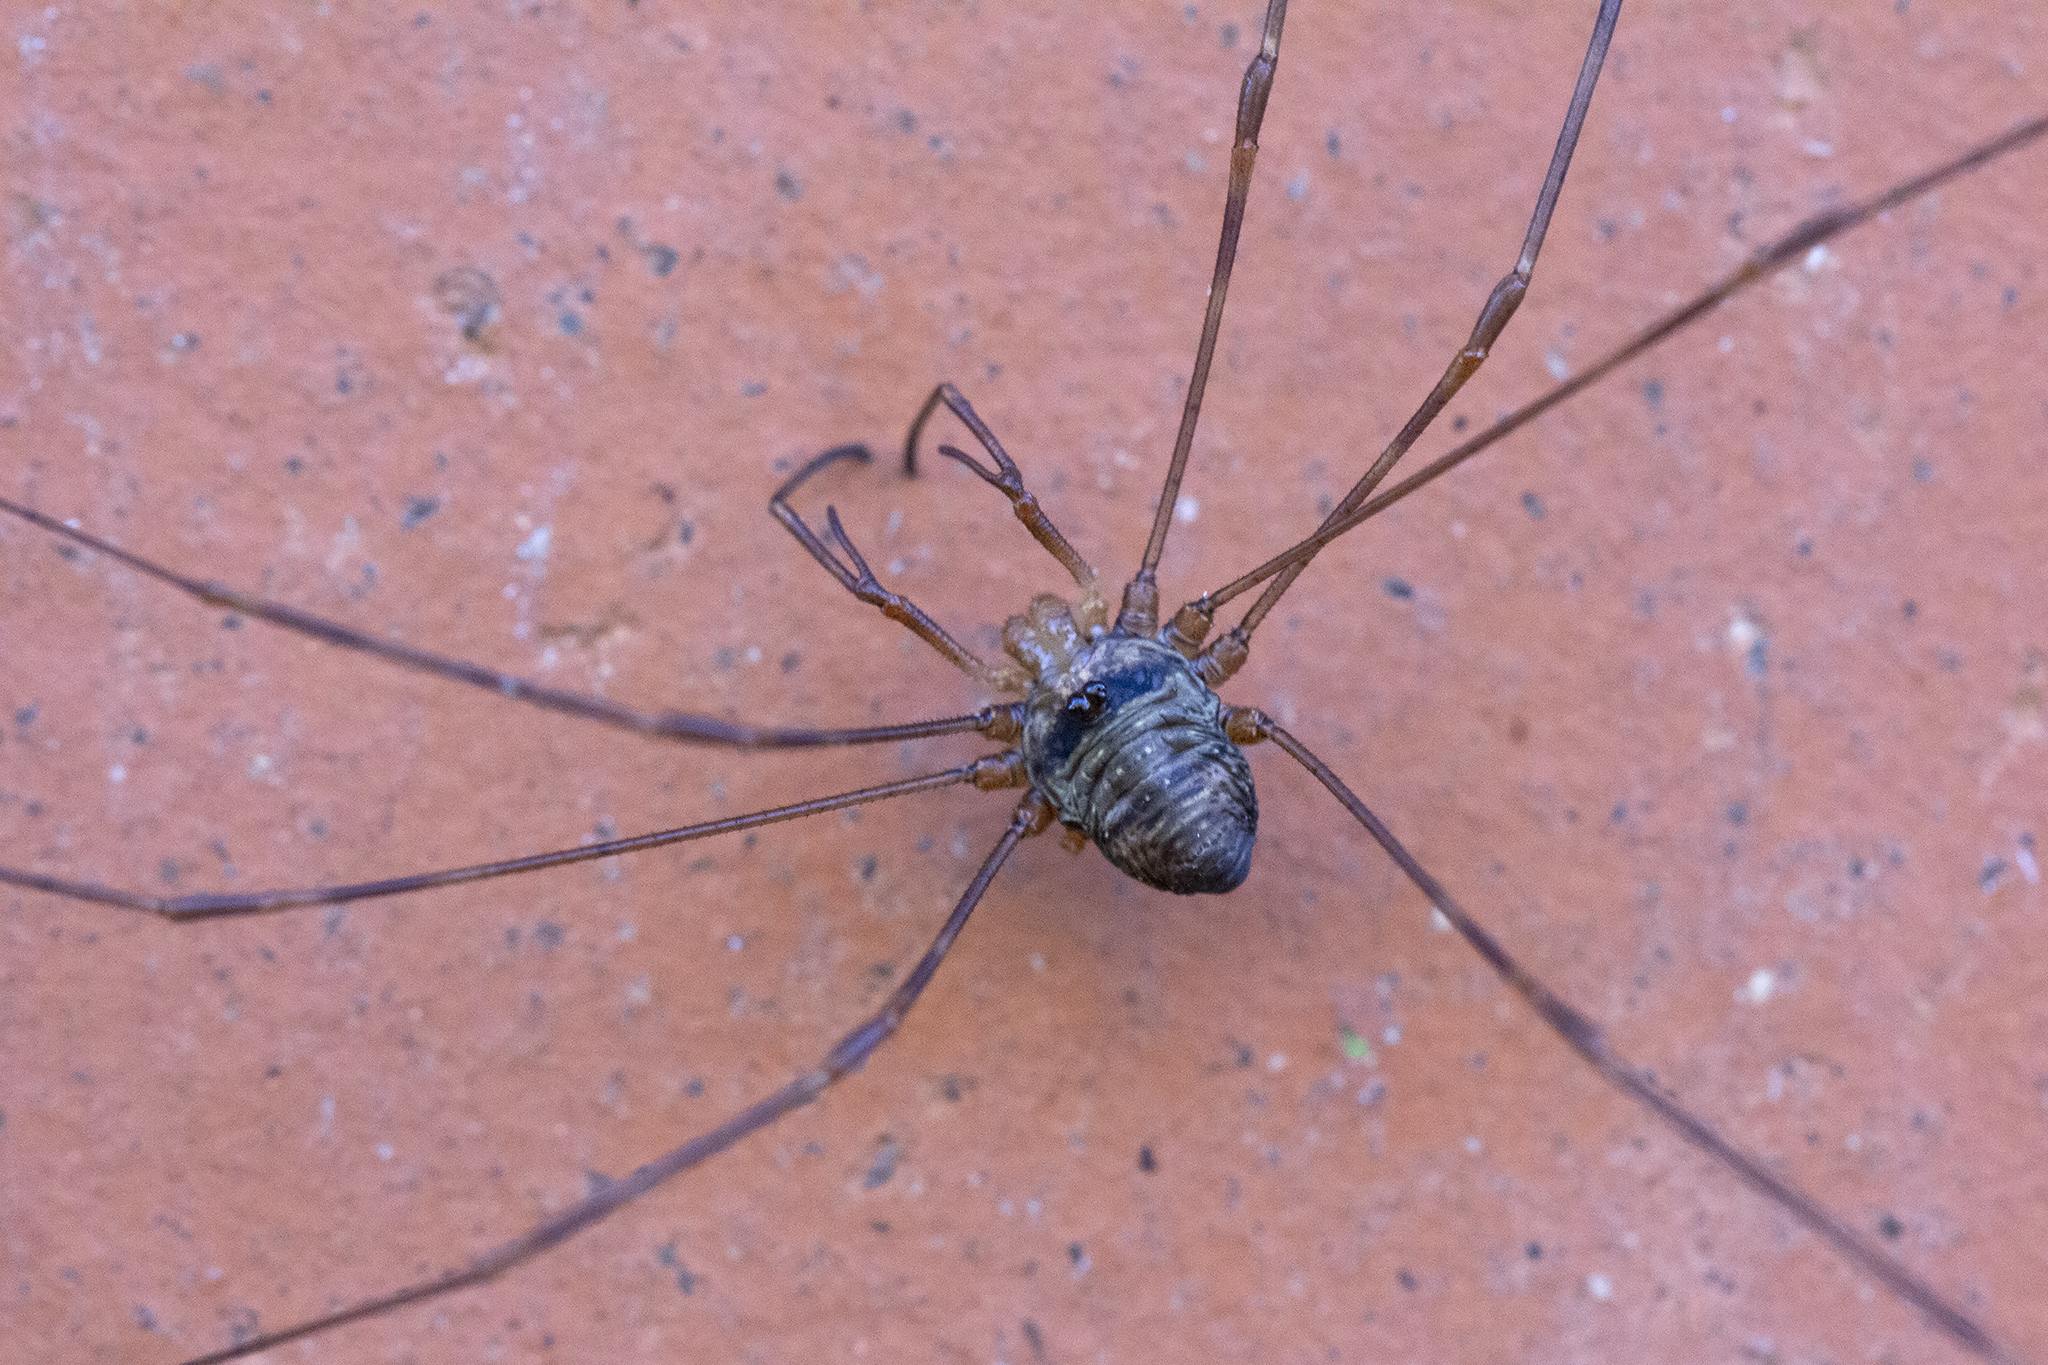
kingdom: Animalia
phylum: Arthropoda
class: Arachnida
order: Opiliones
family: Phalangiidae
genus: Dicranopalpus
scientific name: Dicranopalpus ramosus
